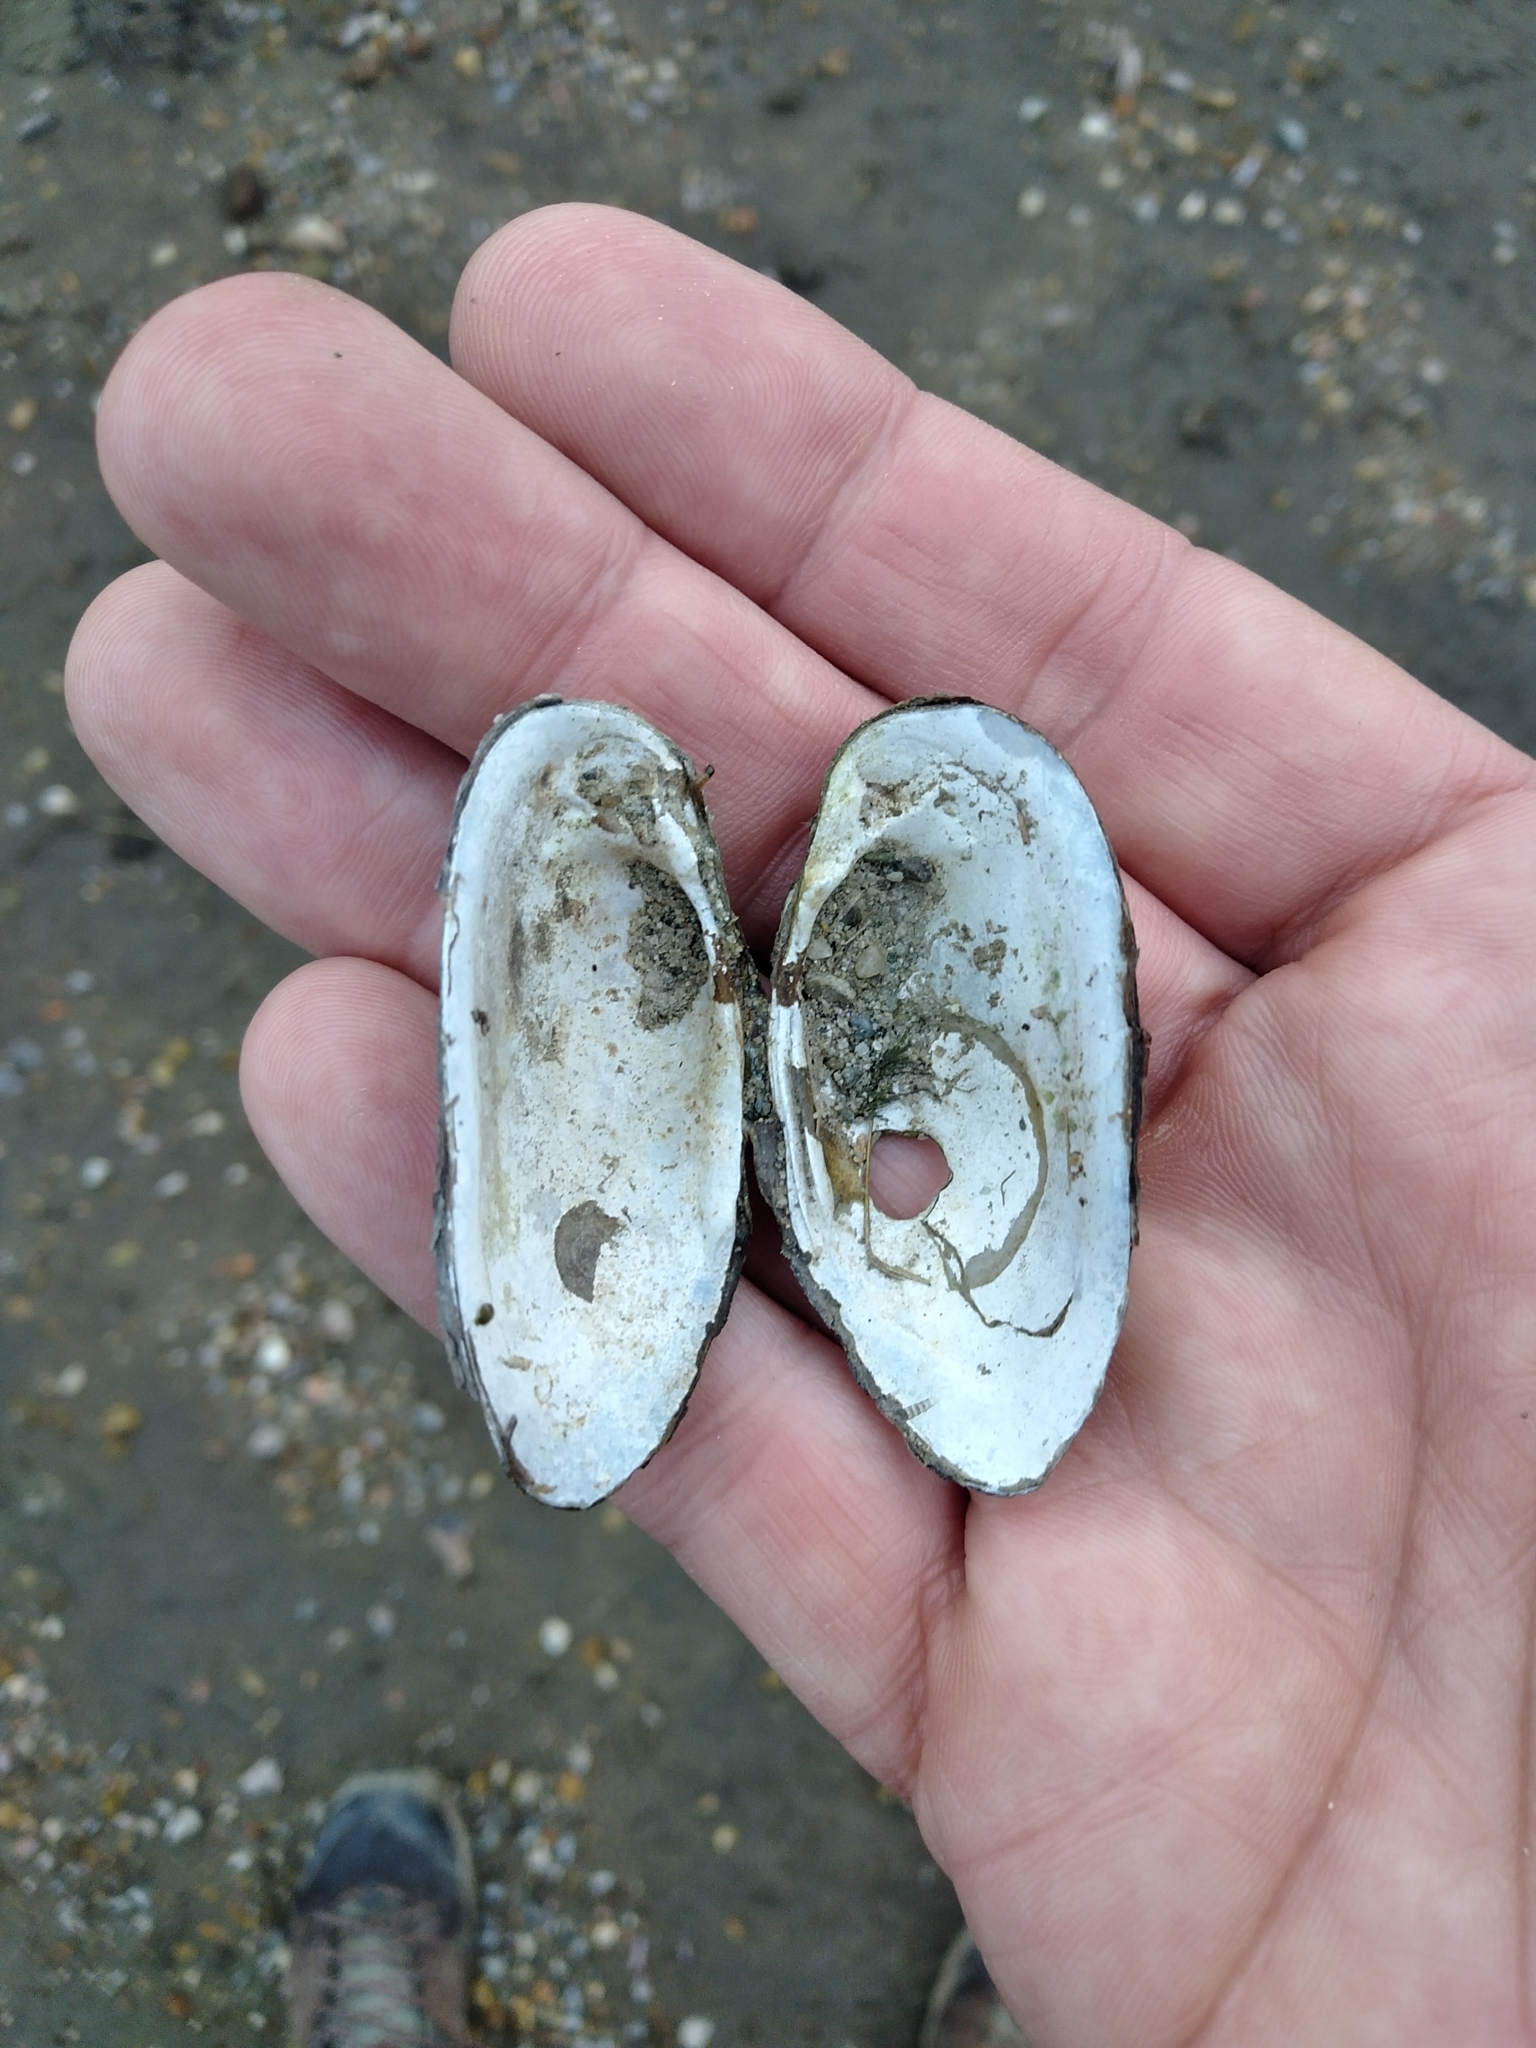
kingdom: Animalia
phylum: Mollusca
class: Bivalvia
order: Unionida
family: Unionidae
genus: Unio
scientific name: Unio elongatulus
